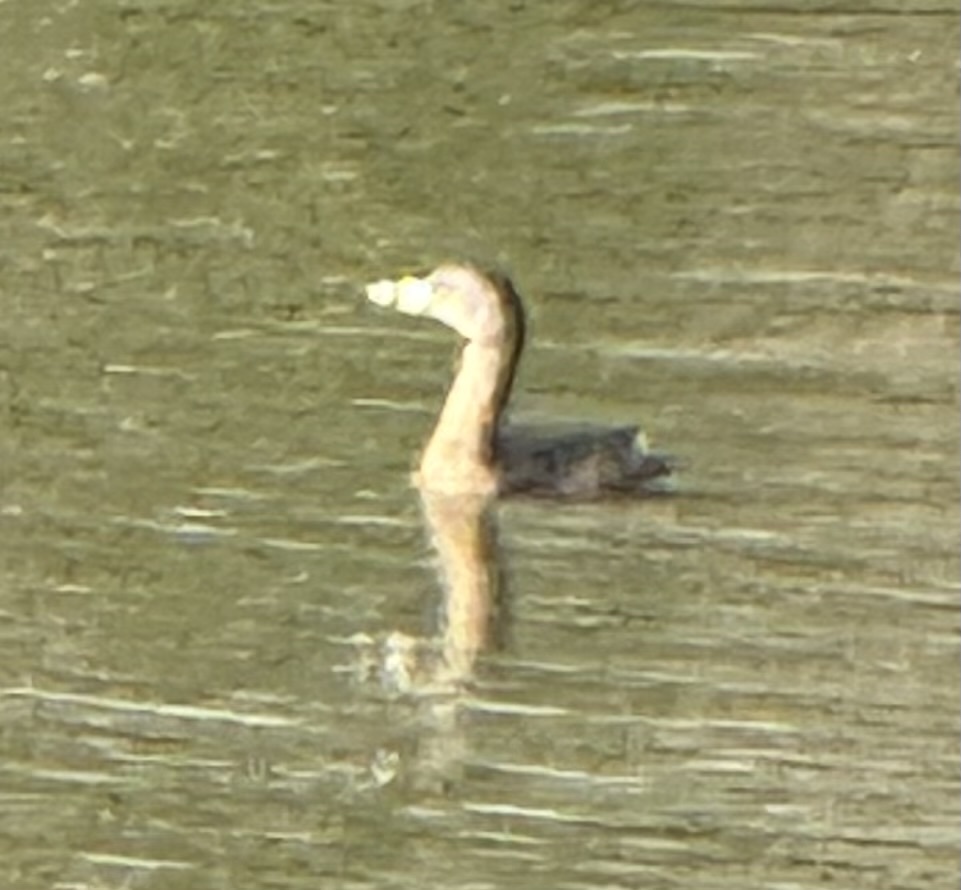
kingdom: Animalia
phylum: Chordata
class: Aves
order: Podicipediformes
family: Podicipedidae
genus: Podilymbus
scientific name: Podilymbus podiceps
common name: Pied-billed grebe
